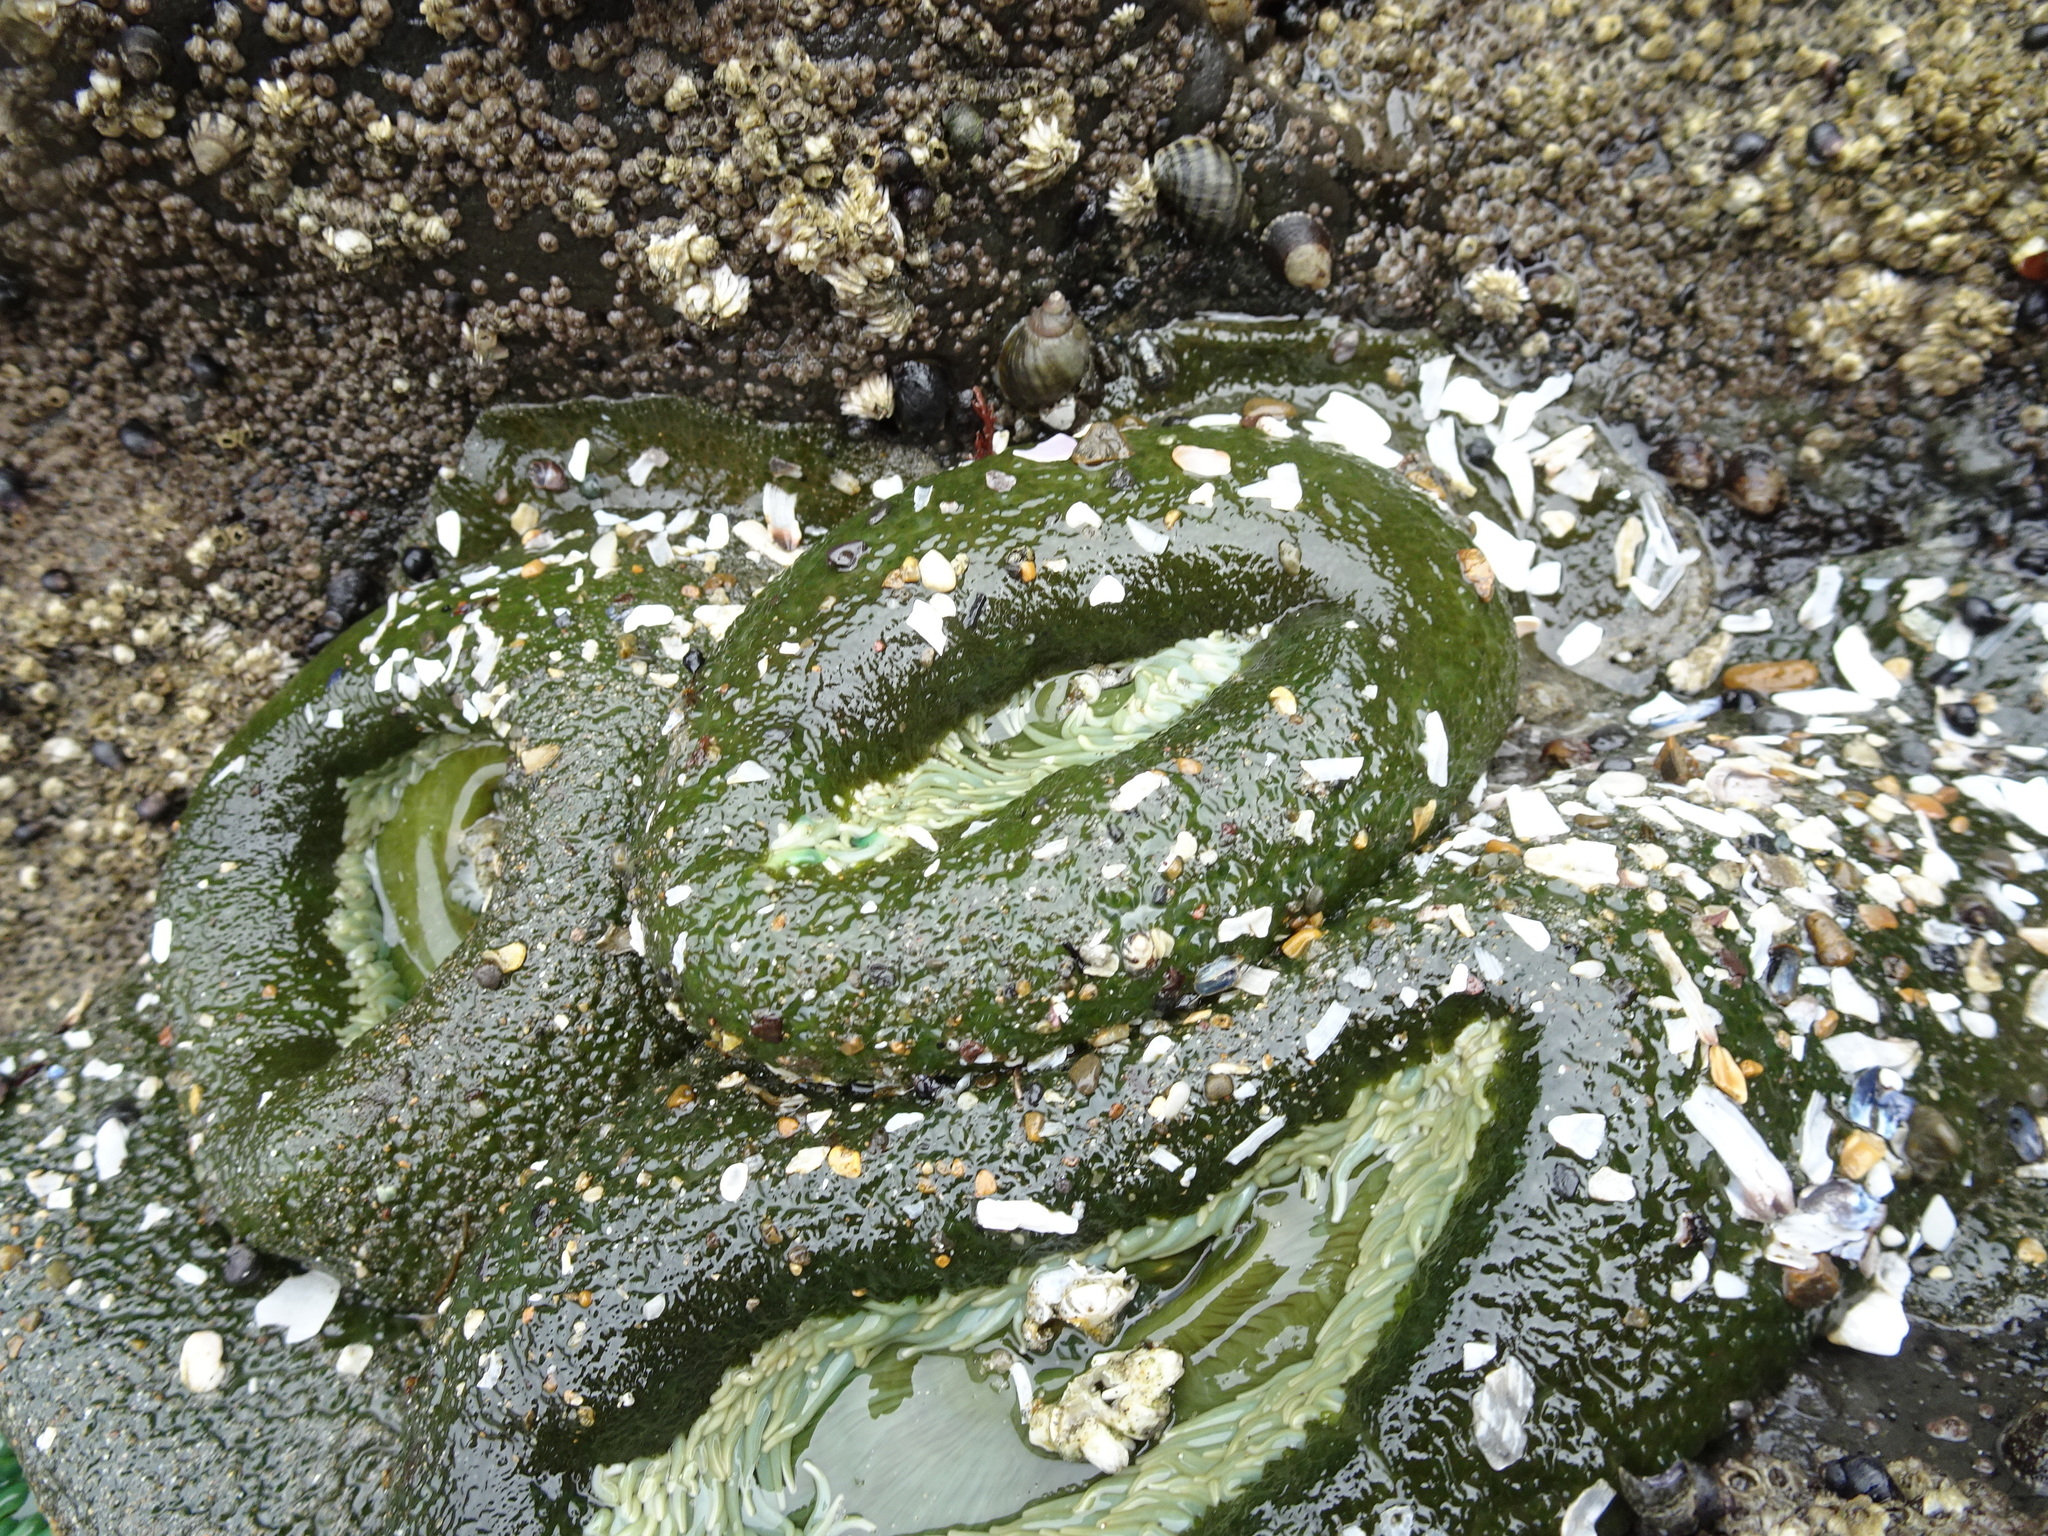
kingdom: Animalia
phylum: Cnidaria
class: Anthozoa
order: Actiniaria
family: Actiniidae
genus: Anthopleura
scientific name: Anthopleura xanthogrammica
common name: Giant green anemone
